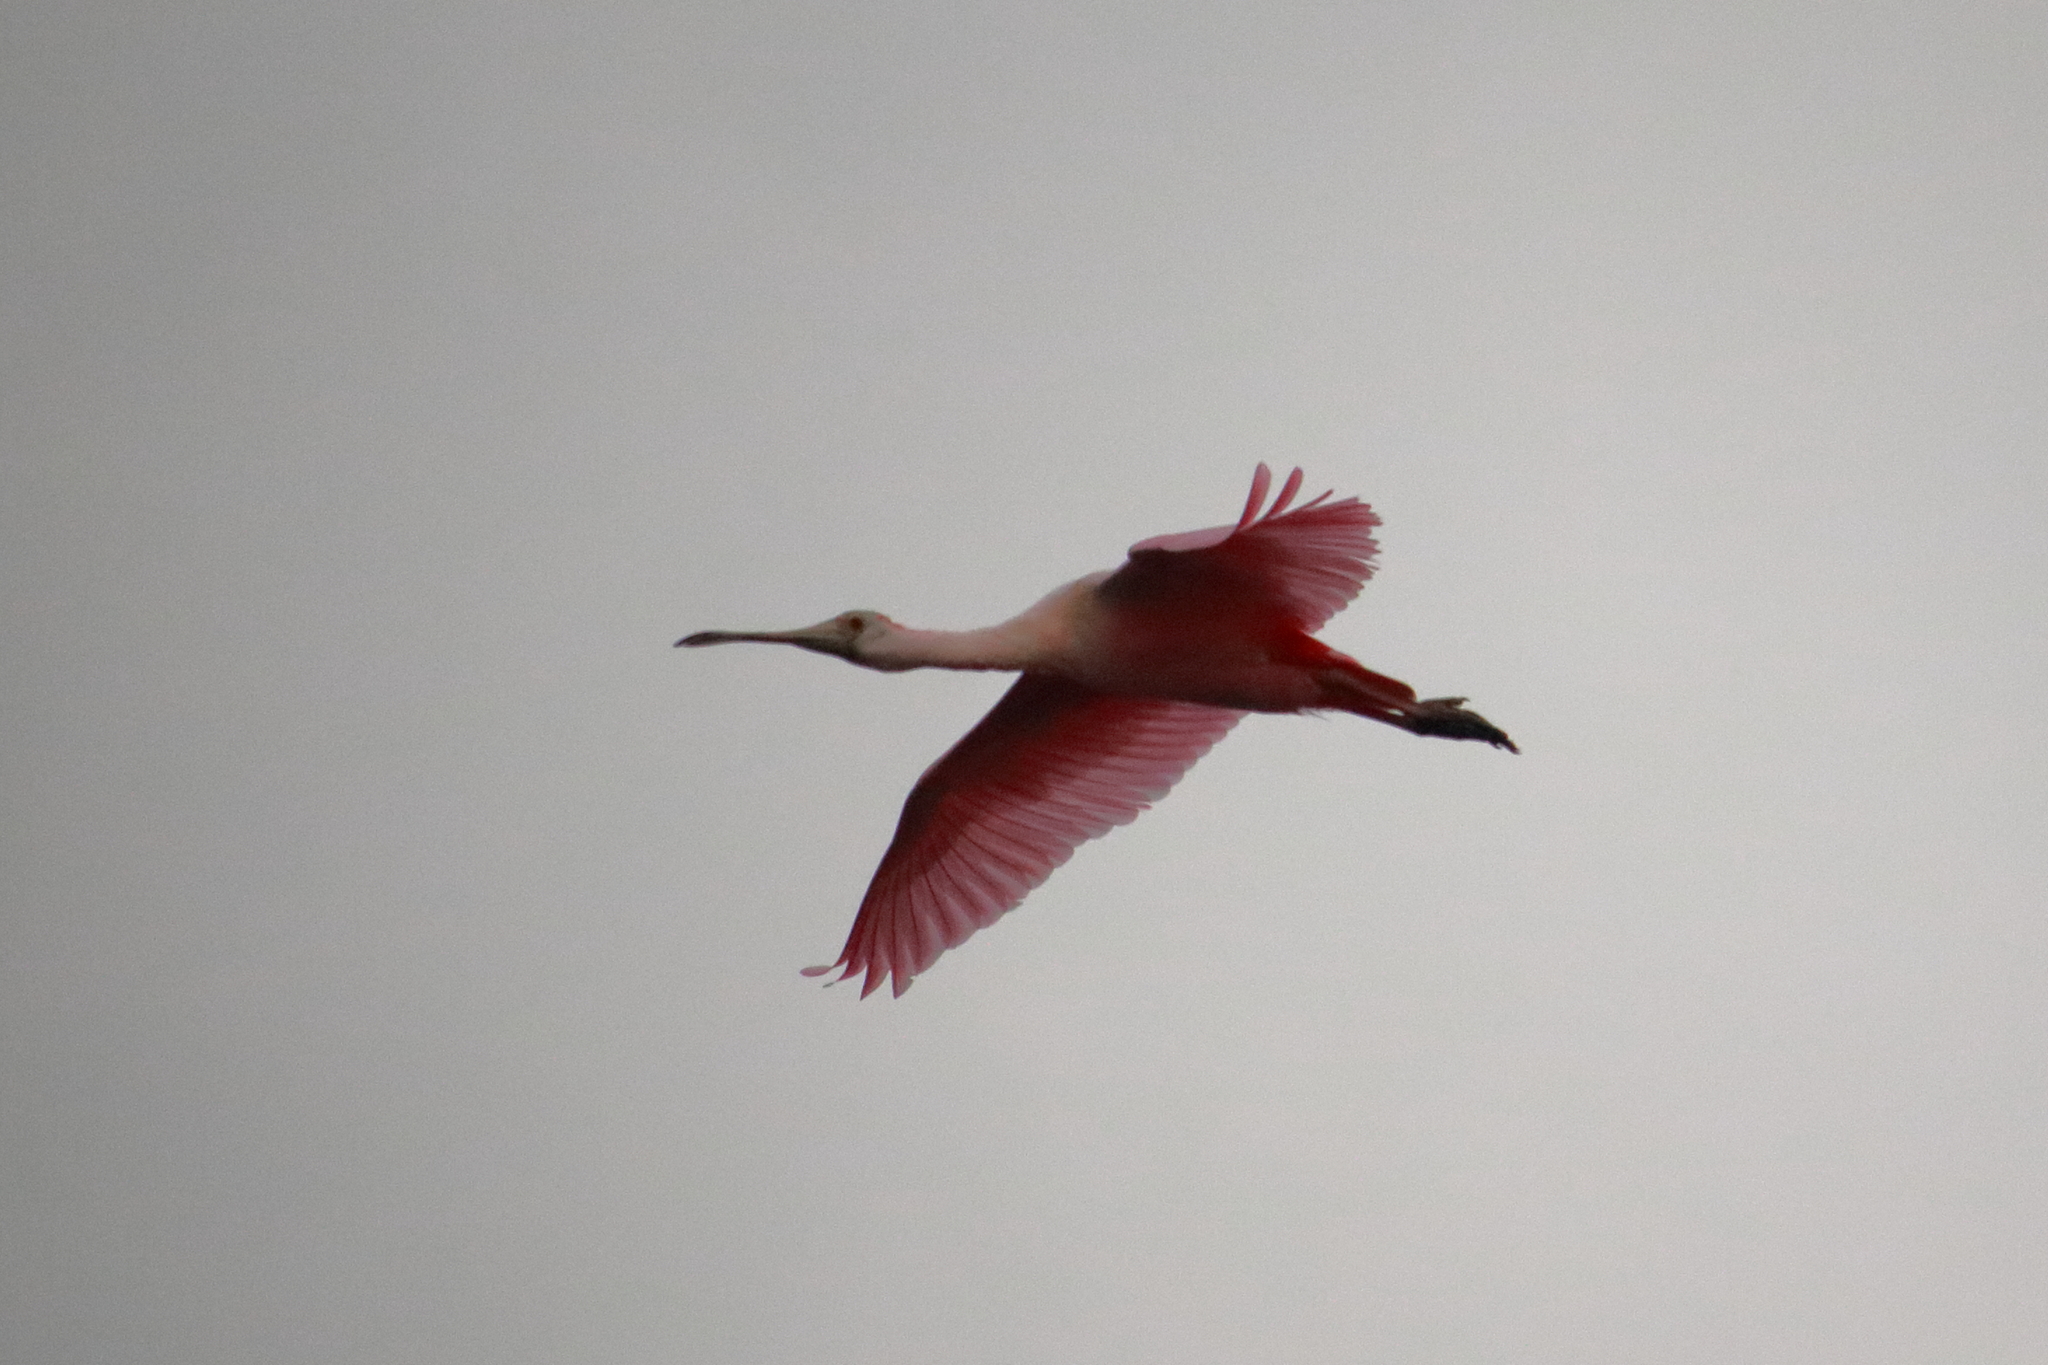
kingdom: Animalia
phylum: Chordata
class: Aves
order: Pelecaniformes
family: Threskiornithidae
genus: Platalea
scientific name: Platalea ajaja
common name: Roseate spoonbill
